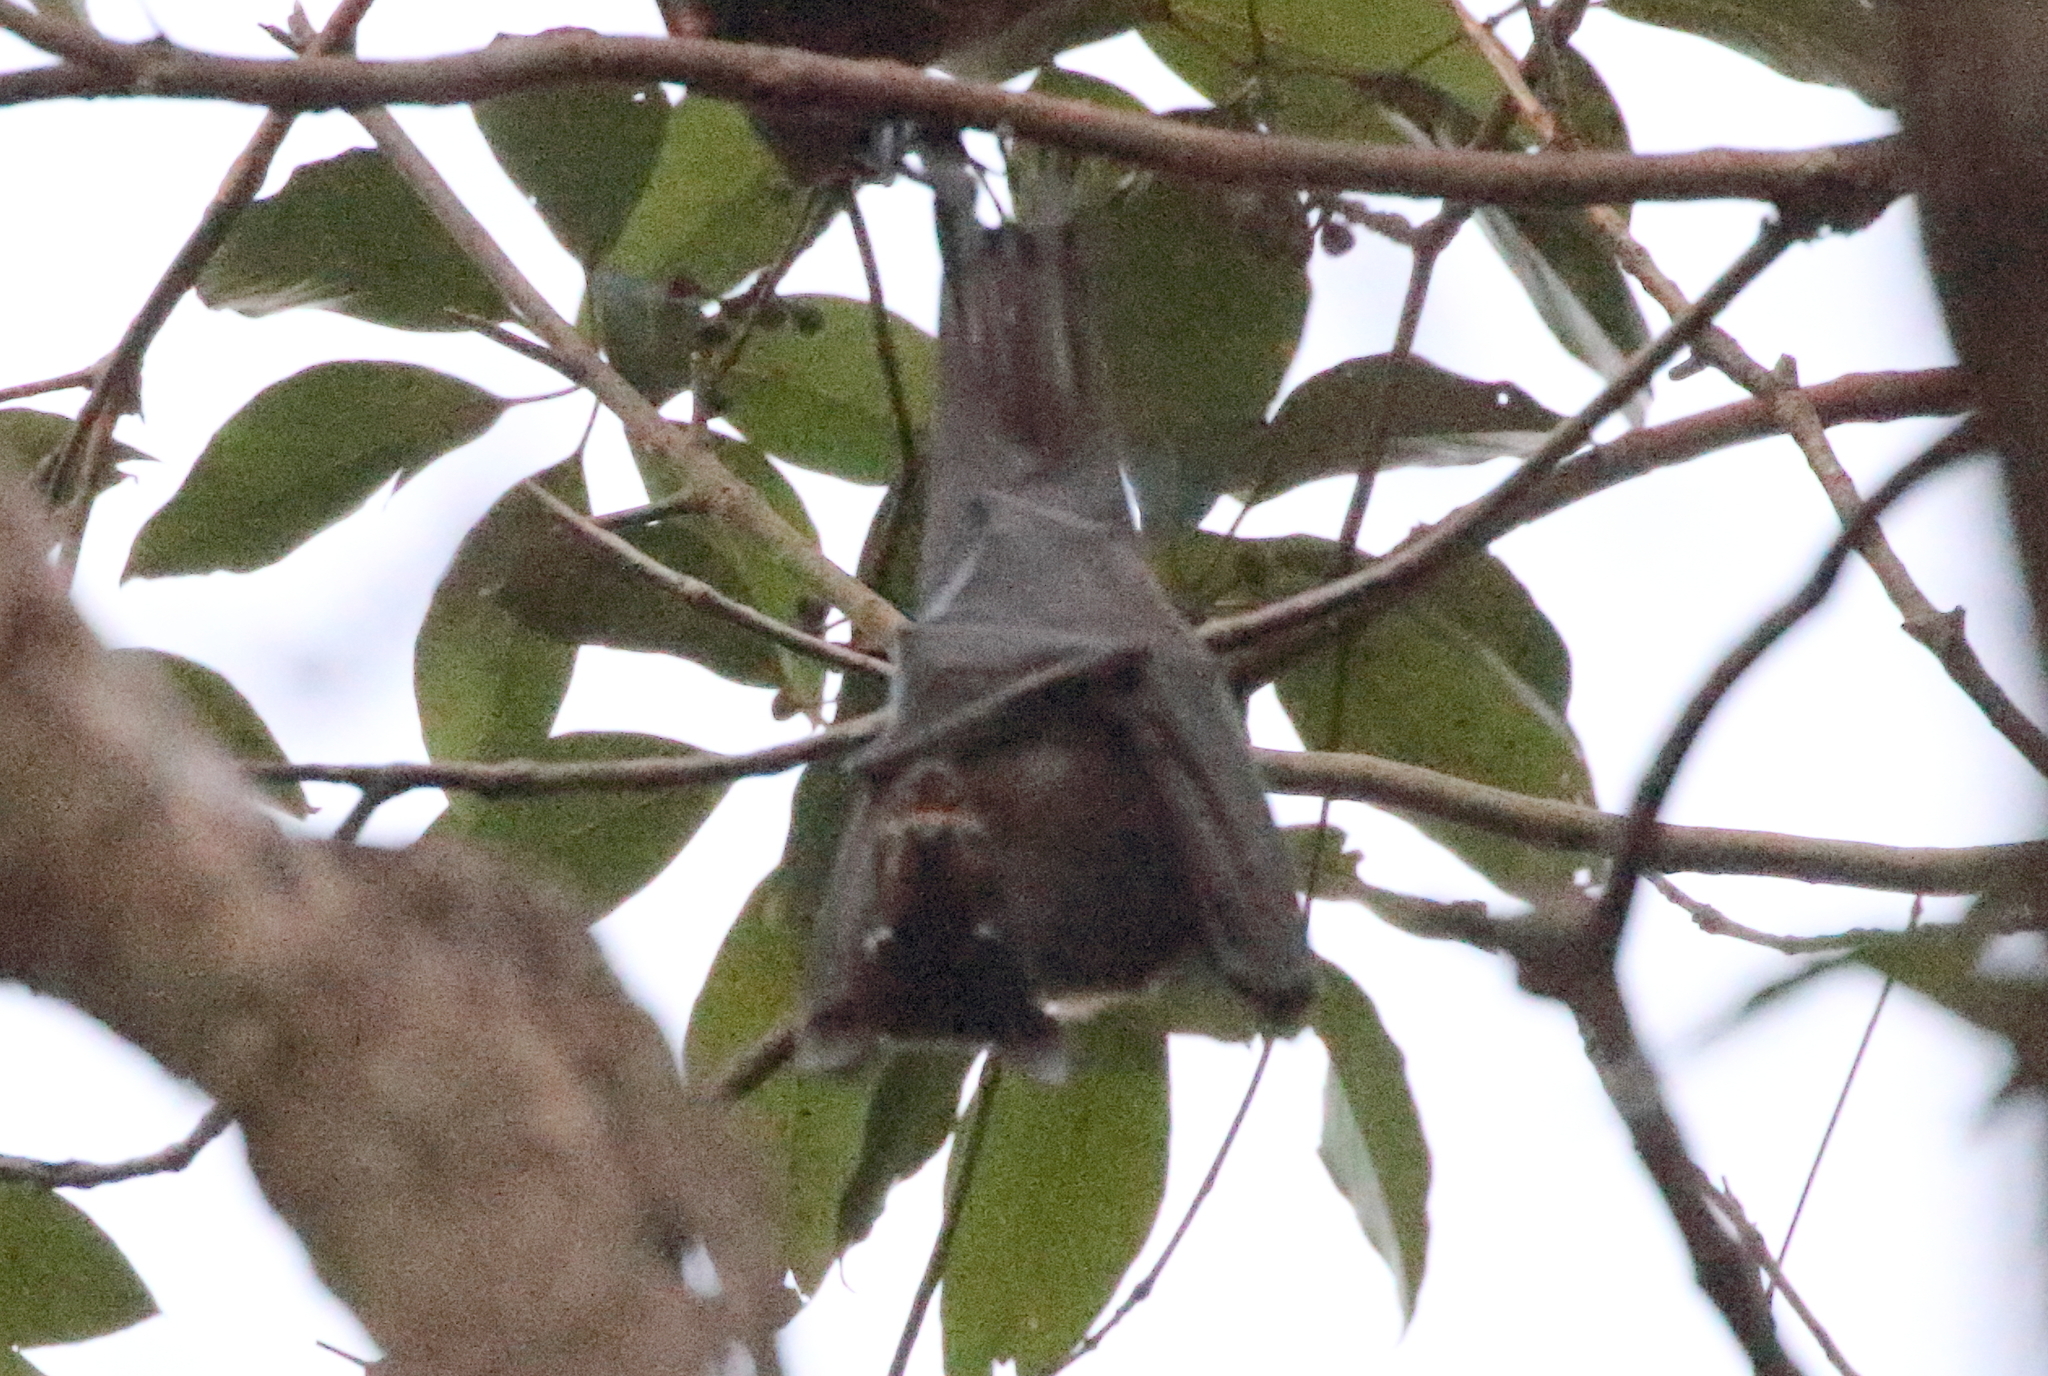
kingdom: Animalia
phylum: Chordata
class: Mammalia
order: Chiroptera
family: Pteropodidae
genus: Pteropus
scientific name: Pteropus alecto
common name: Black flying fox
